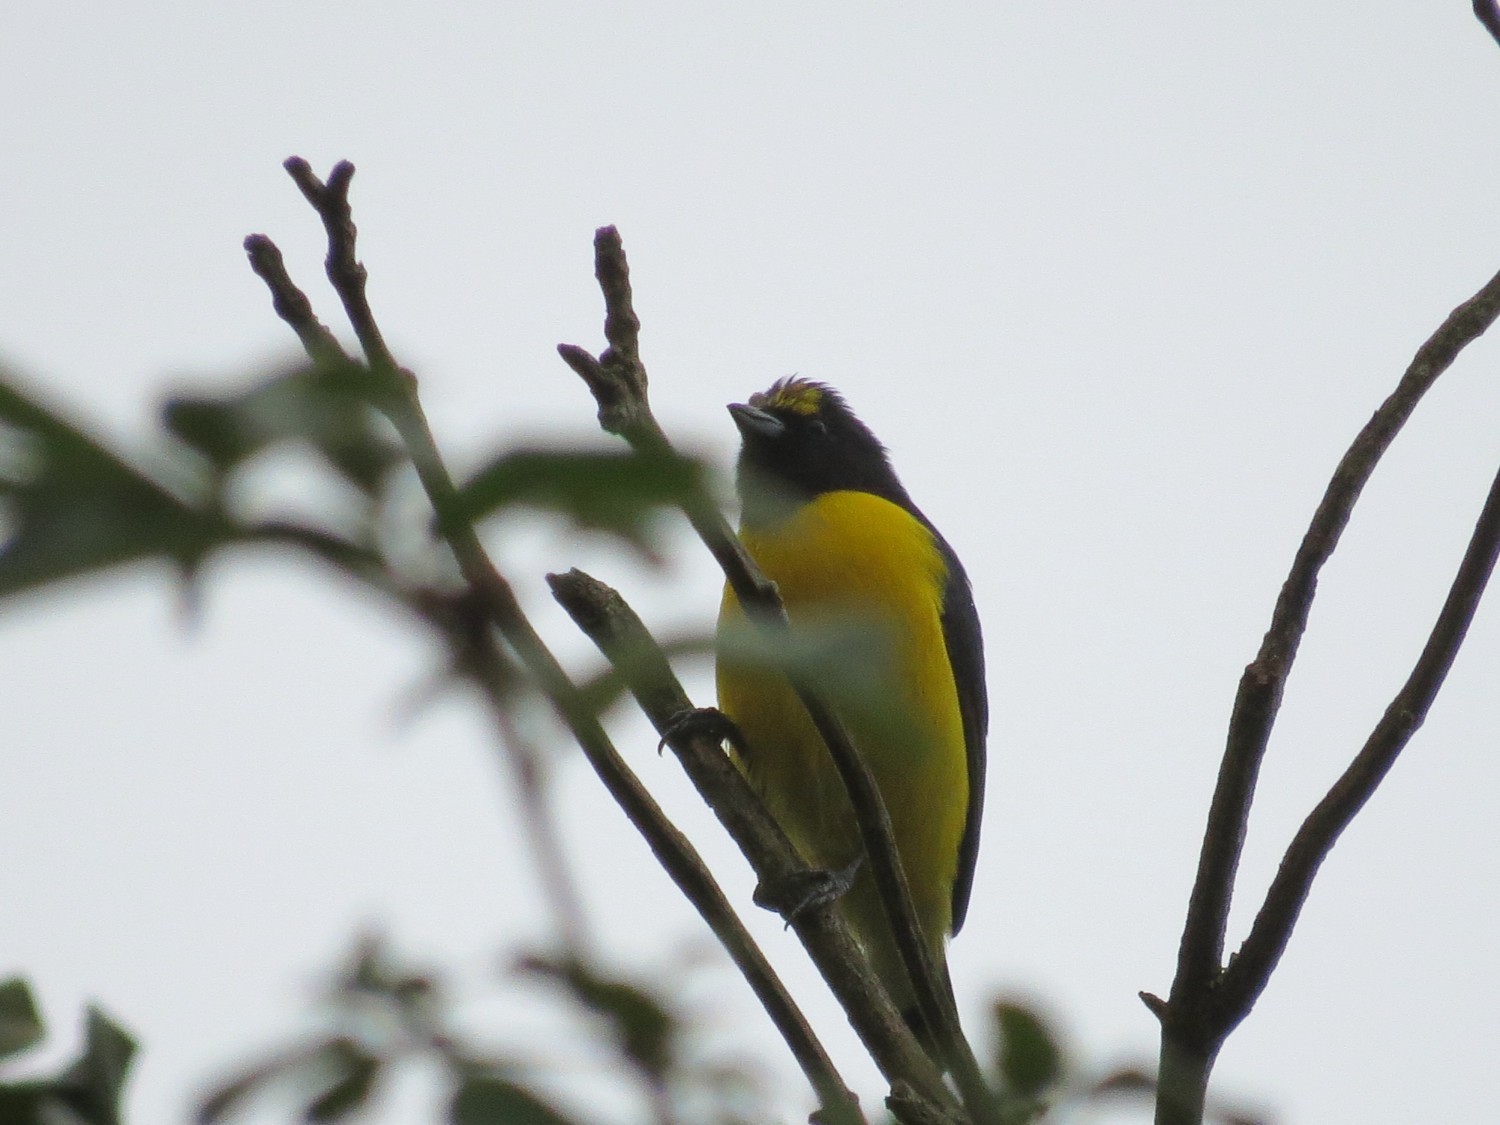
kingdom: Animalia
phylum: Chordata
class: Aves
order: Passeriformes
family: Fringillidae
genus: Euphonia
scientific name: Euphonia chlorotica
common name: Purple-throated euphonia
